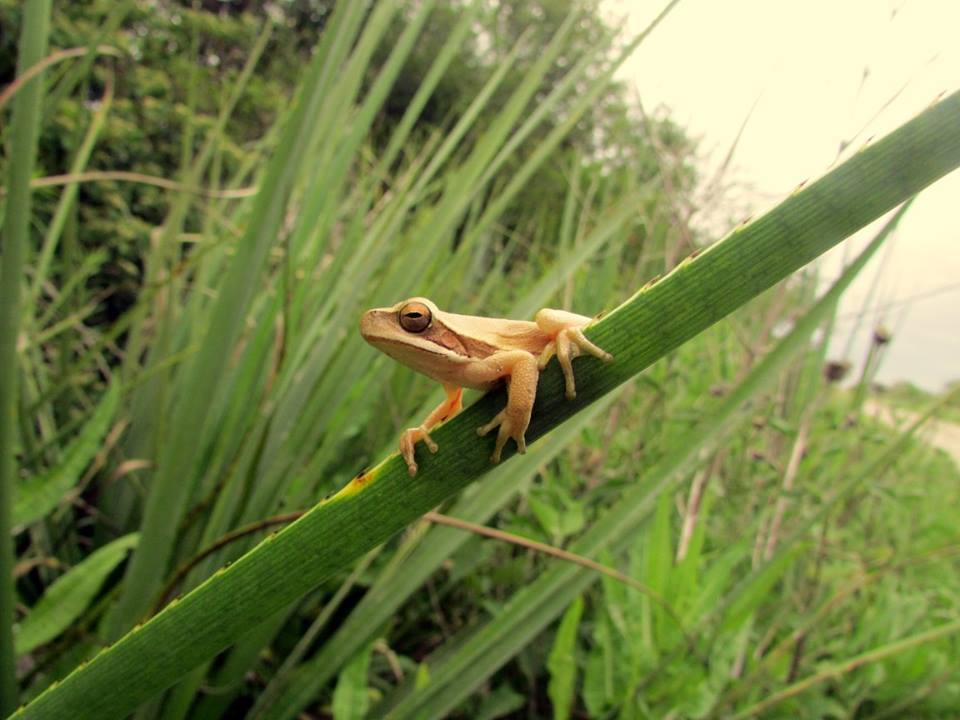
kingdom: Animalia
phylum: Chordata
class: Amphibia
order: Anura
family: Hylidae
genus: Boana
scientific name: Boana pulchella
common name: Montevideo treefrog
